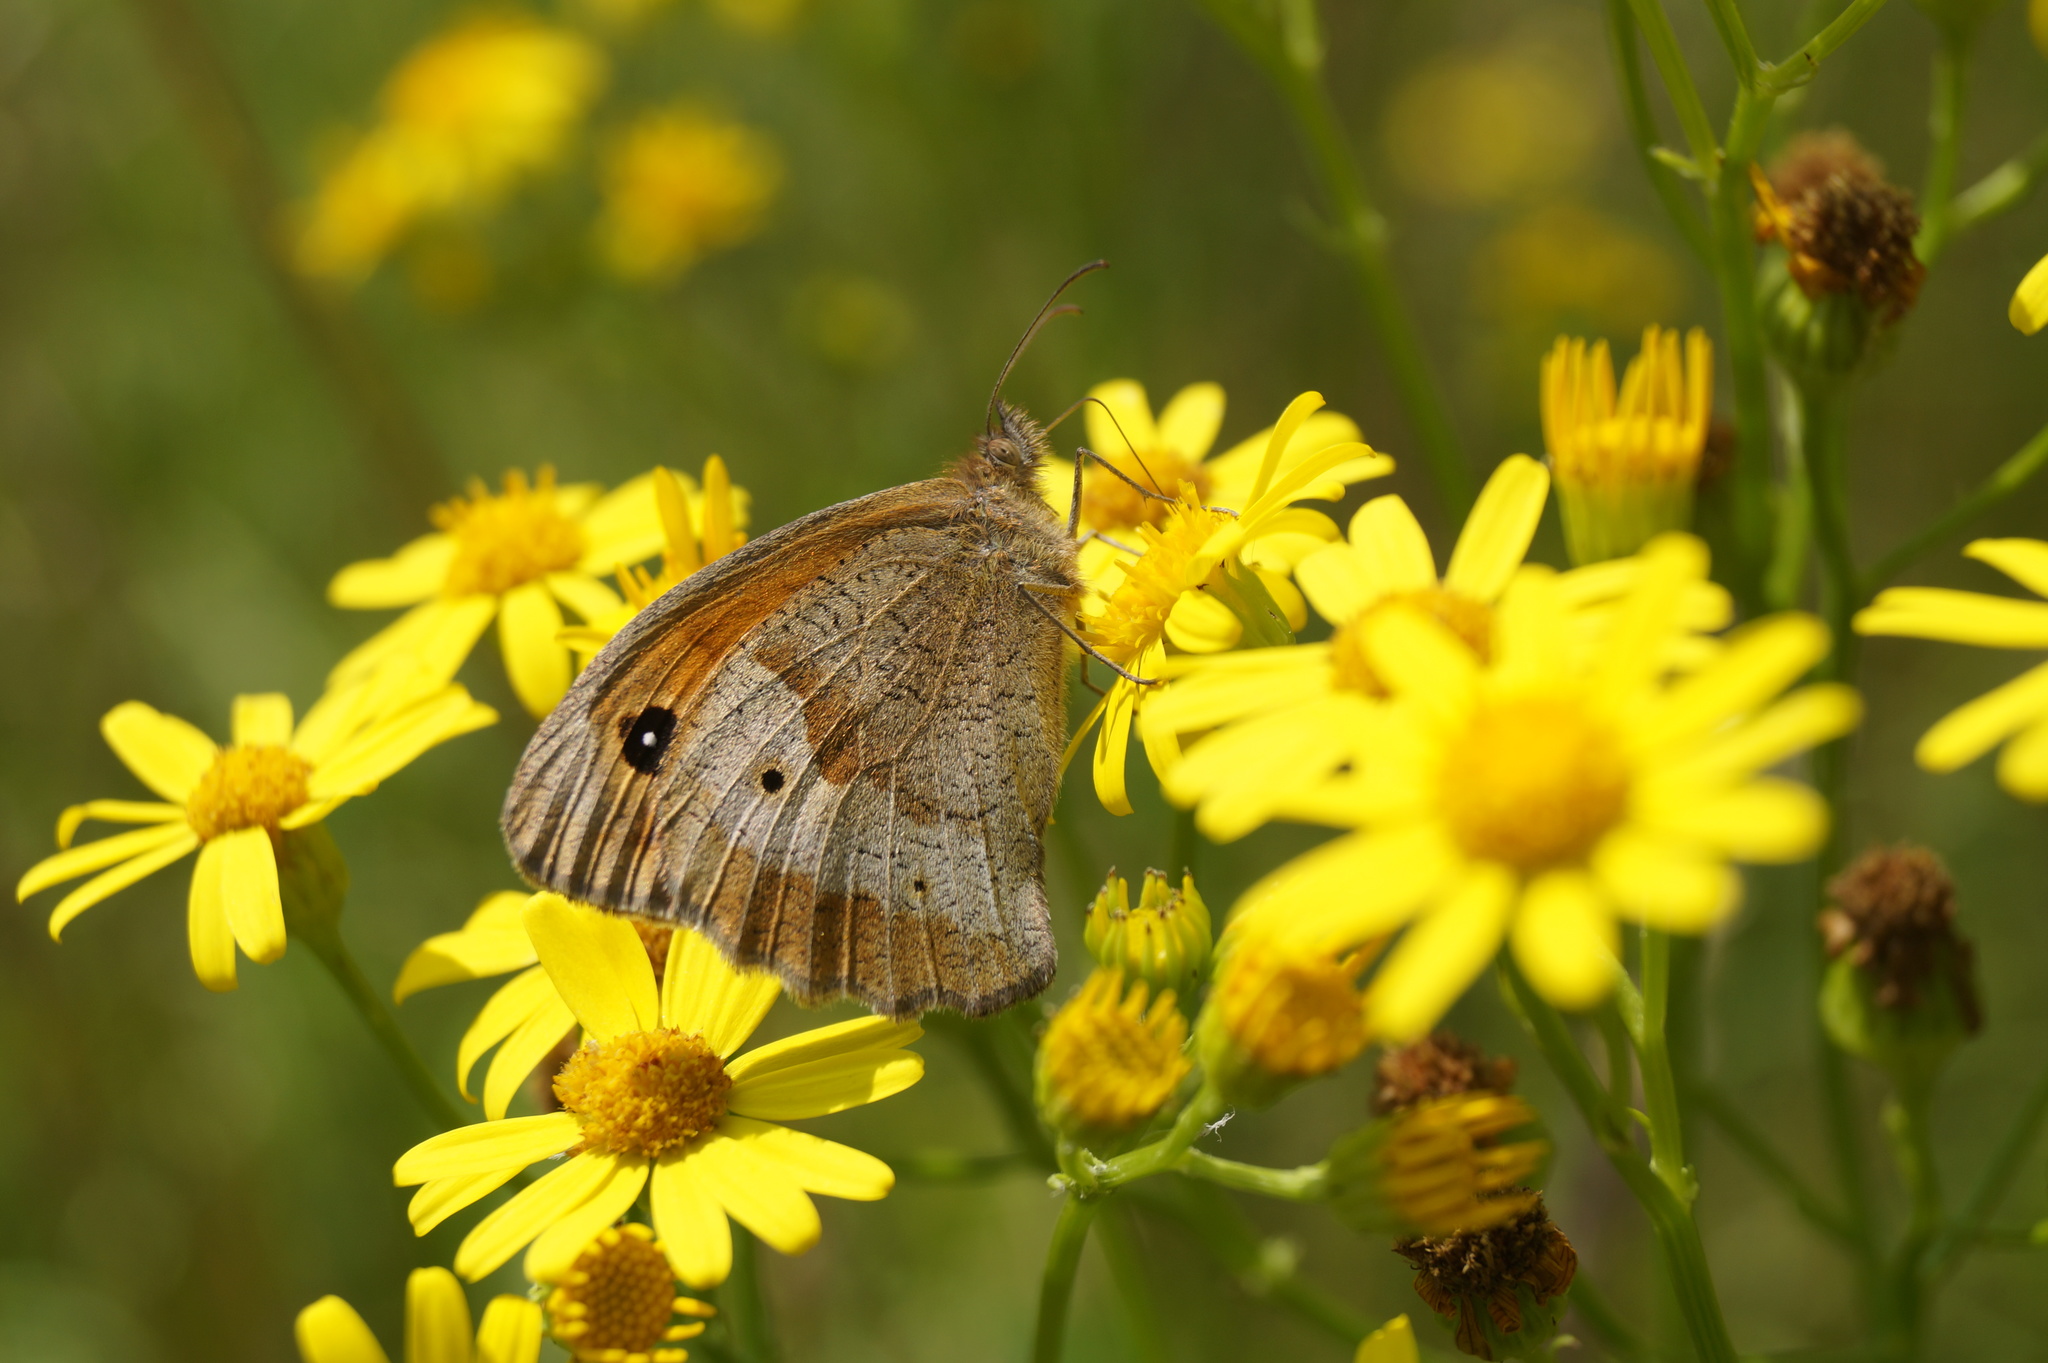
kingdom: Animalia
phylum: Arthropoda
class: Insecta
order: Lepidoptera
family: Nymphalidae
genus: Maniola
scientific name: Maniola jurtina
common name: Meadow brown
